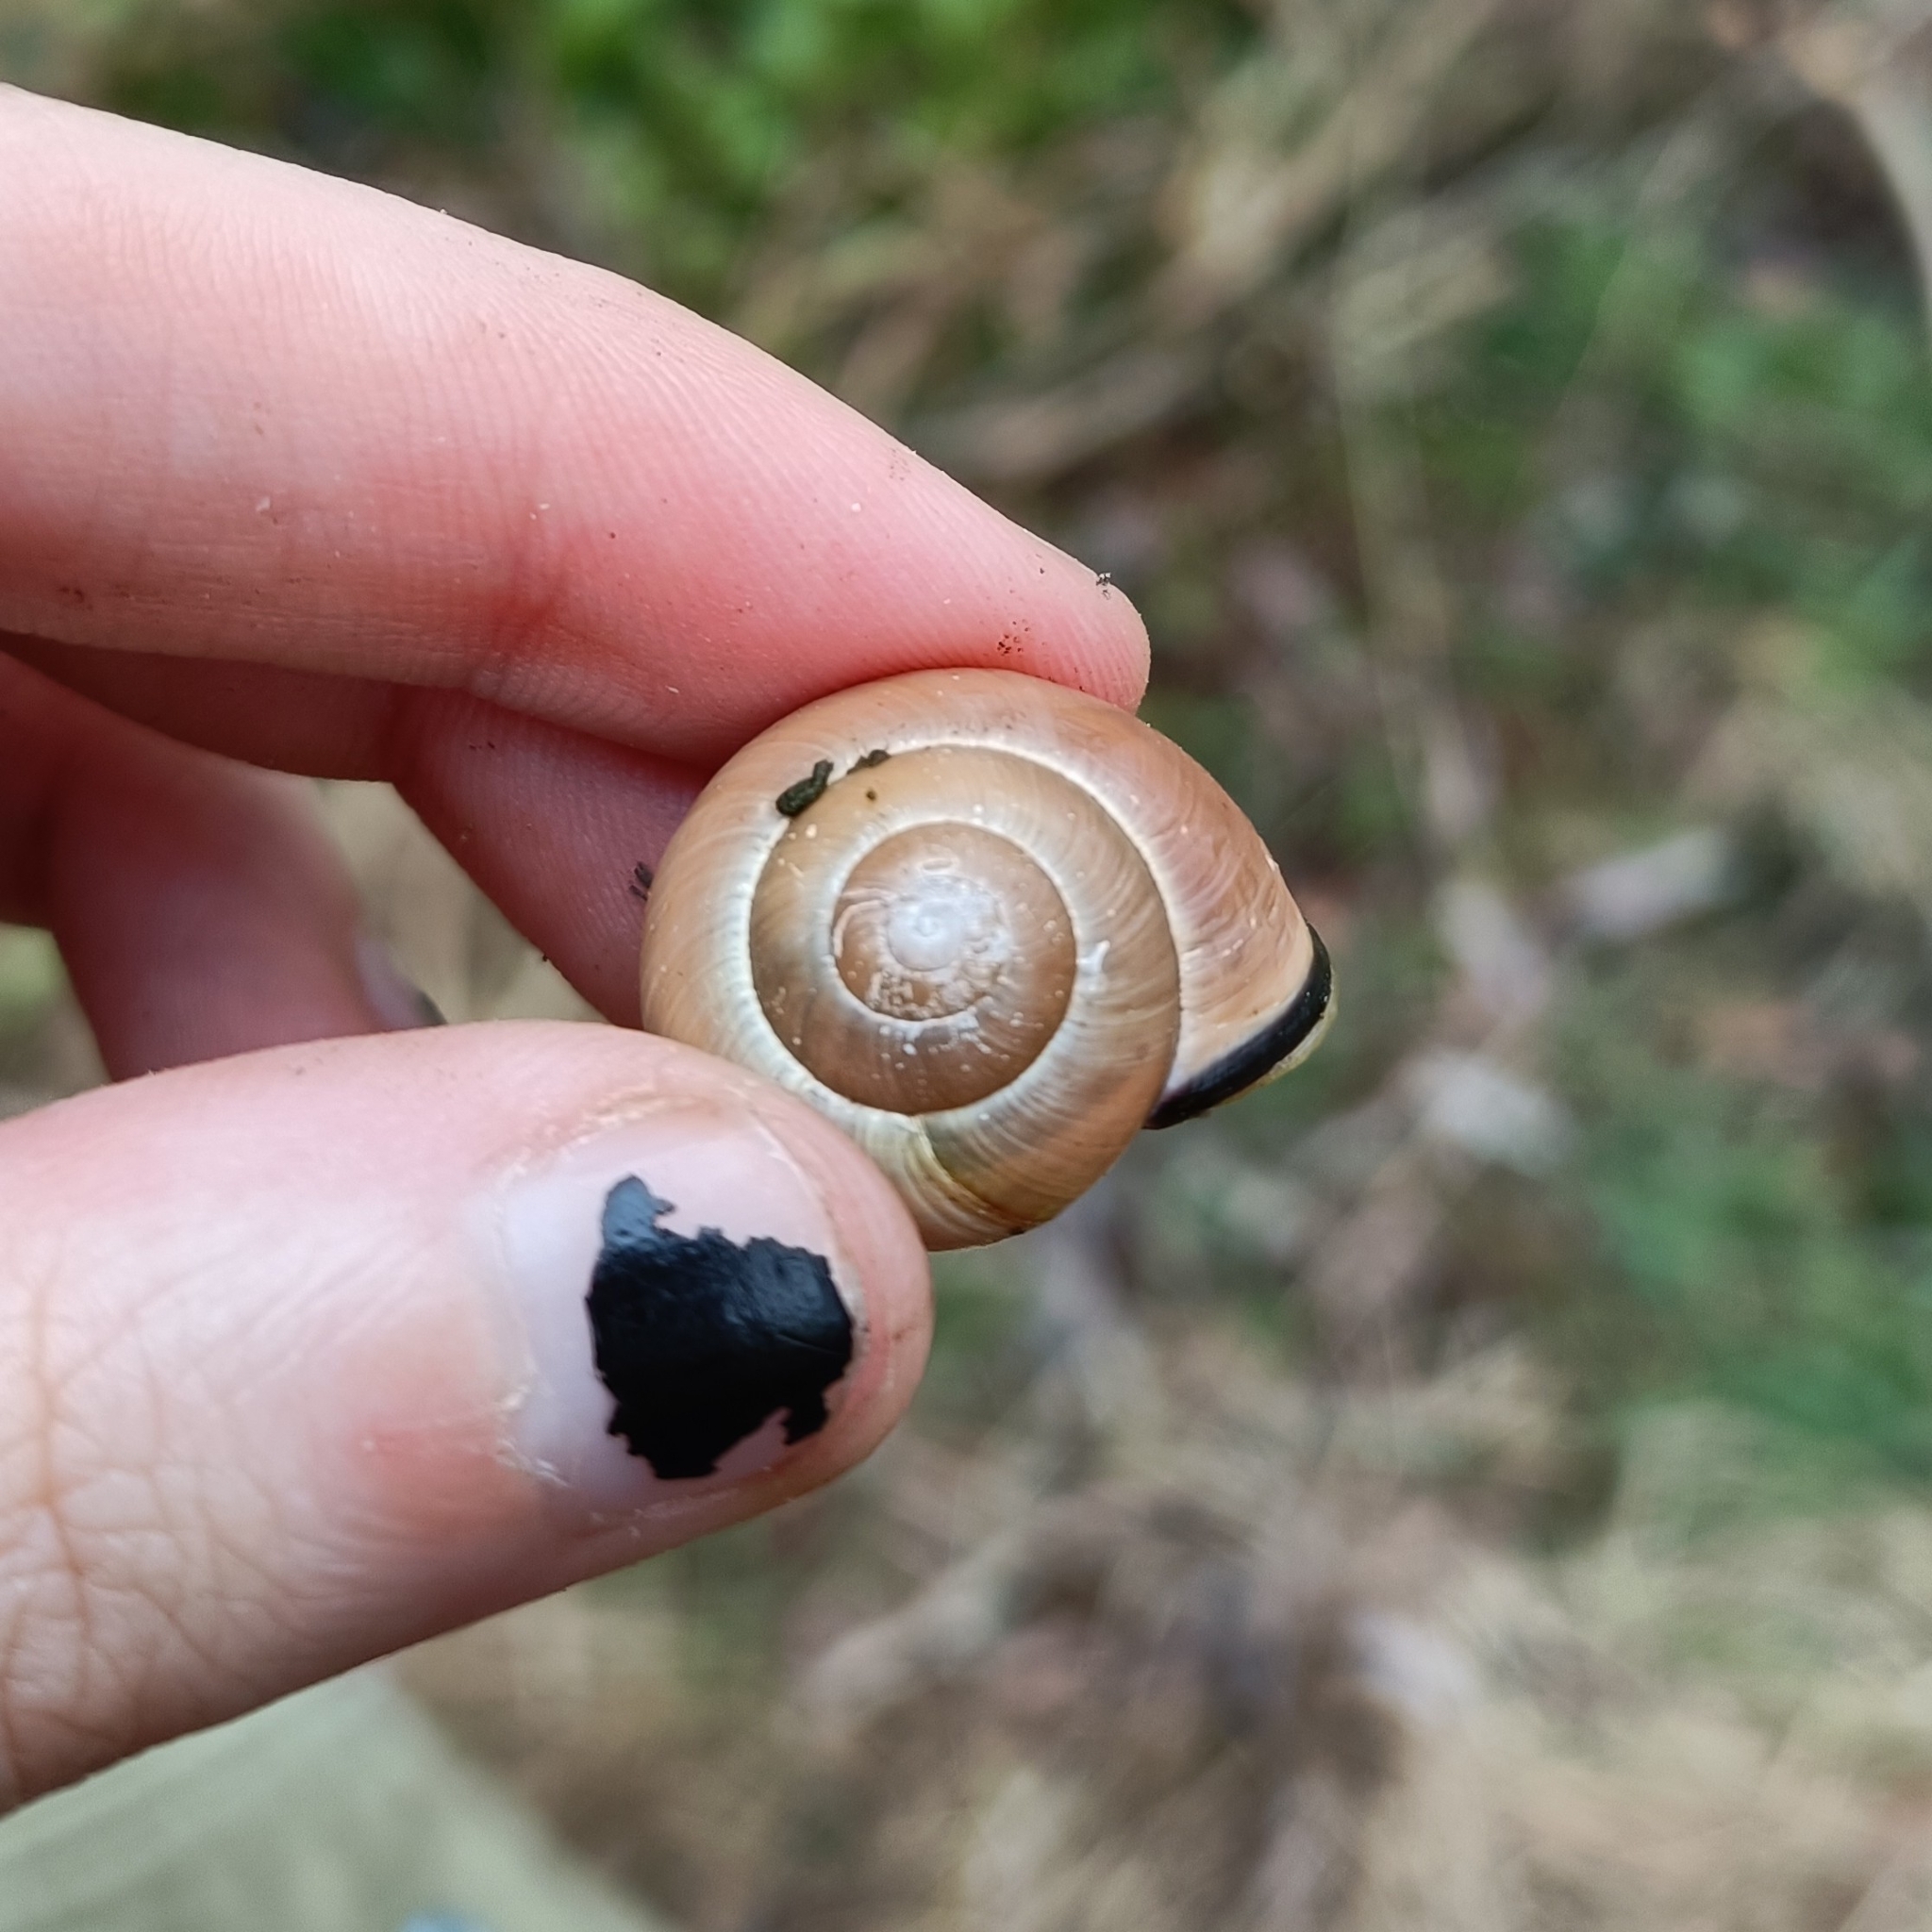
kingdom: Animalia
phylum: Mollusca
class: Gastropoda
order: Stylommatophora
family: Helicidae
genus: Cepaea
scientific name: Cepaea nemoralis
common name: Grovesnail
